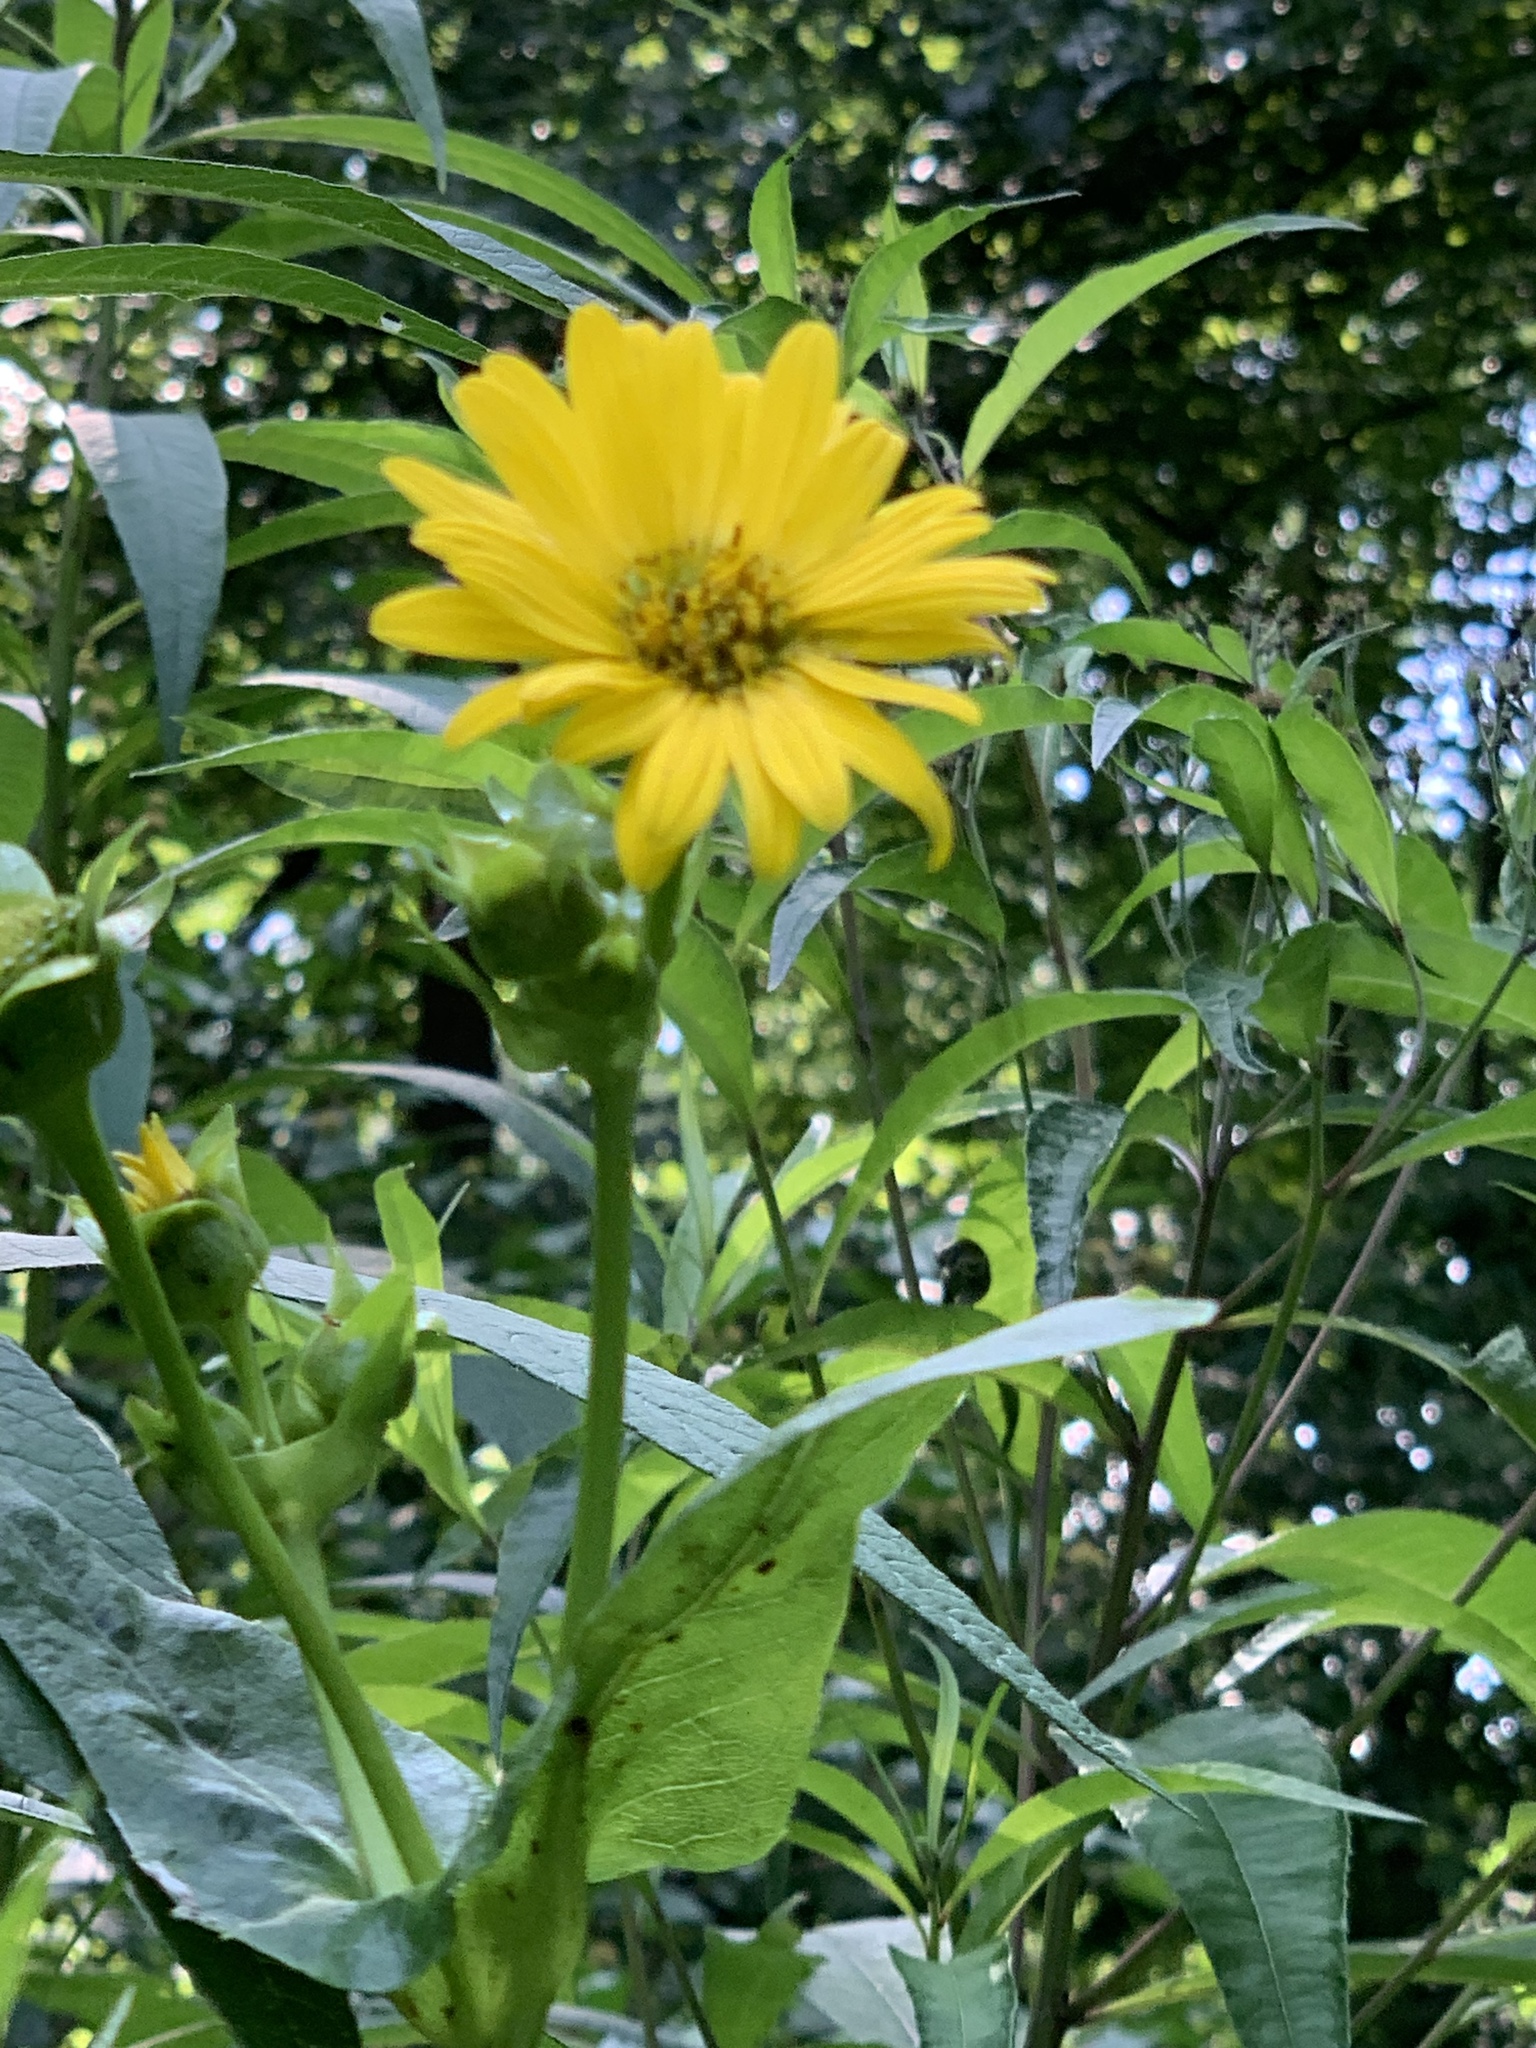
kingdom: Plantae
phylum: Tracheophyta
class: Magnoliopsida
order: Asterales
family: Asteraceae
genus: Silphium
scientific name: Silphium perfoliatum
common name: Cup-plant
